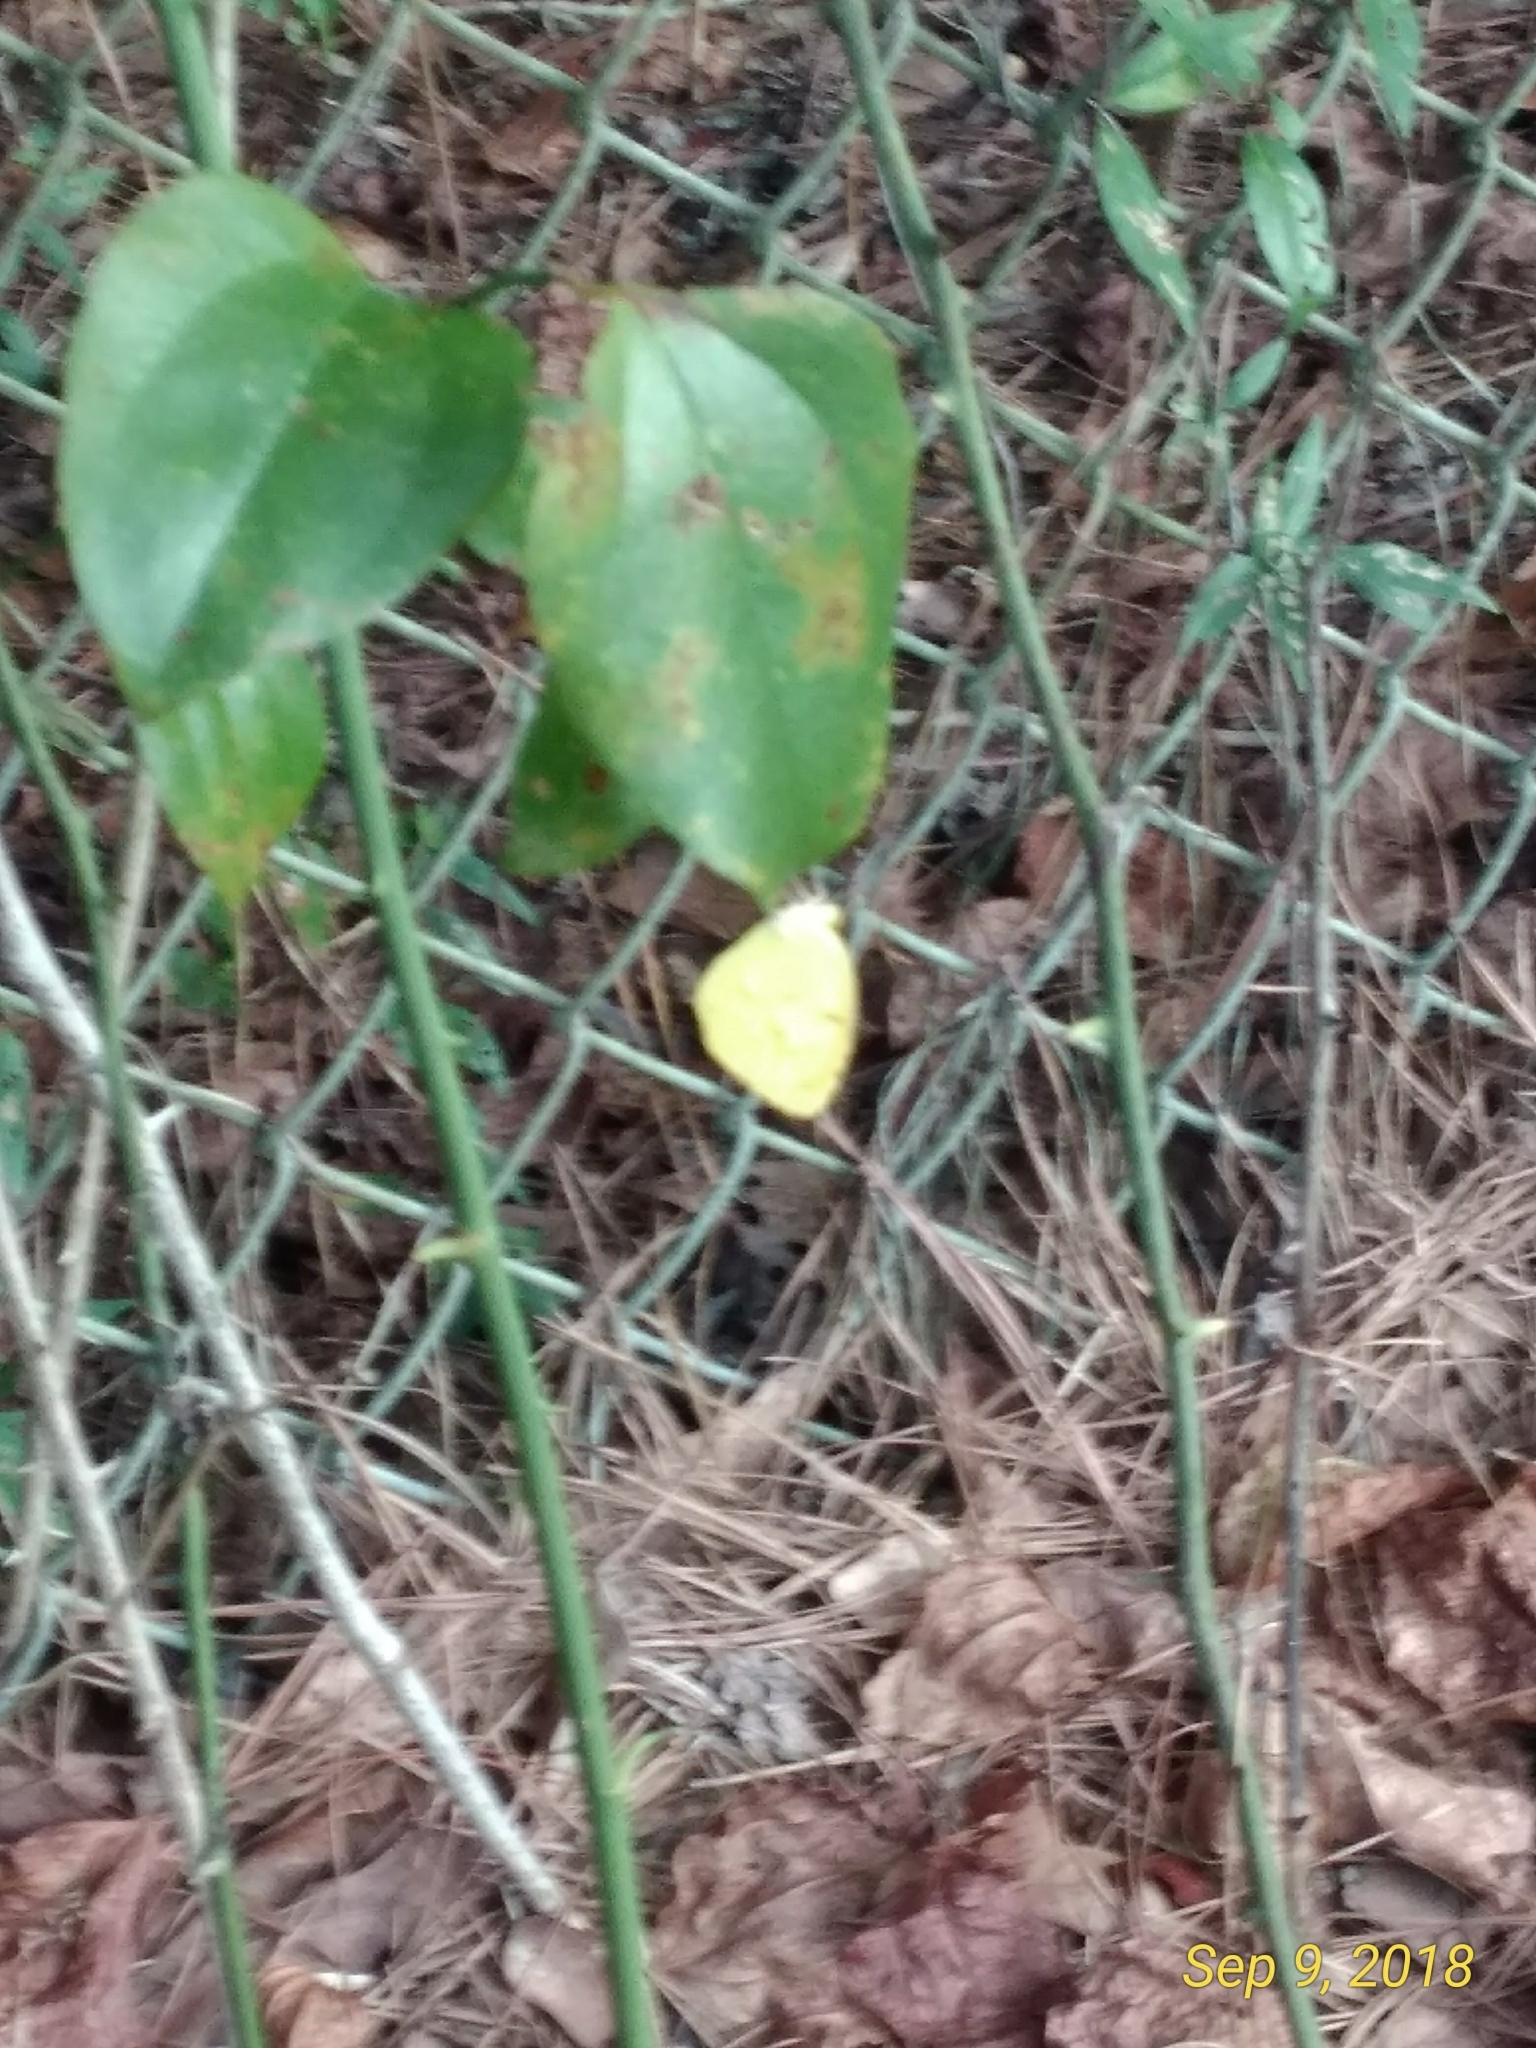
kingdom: Animalia
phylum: Arthropoda
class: Insecta
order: Lepidoptera
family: Pieridae
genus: Abaeis
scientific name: Abaeis nicippe
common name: Sleepy orange
